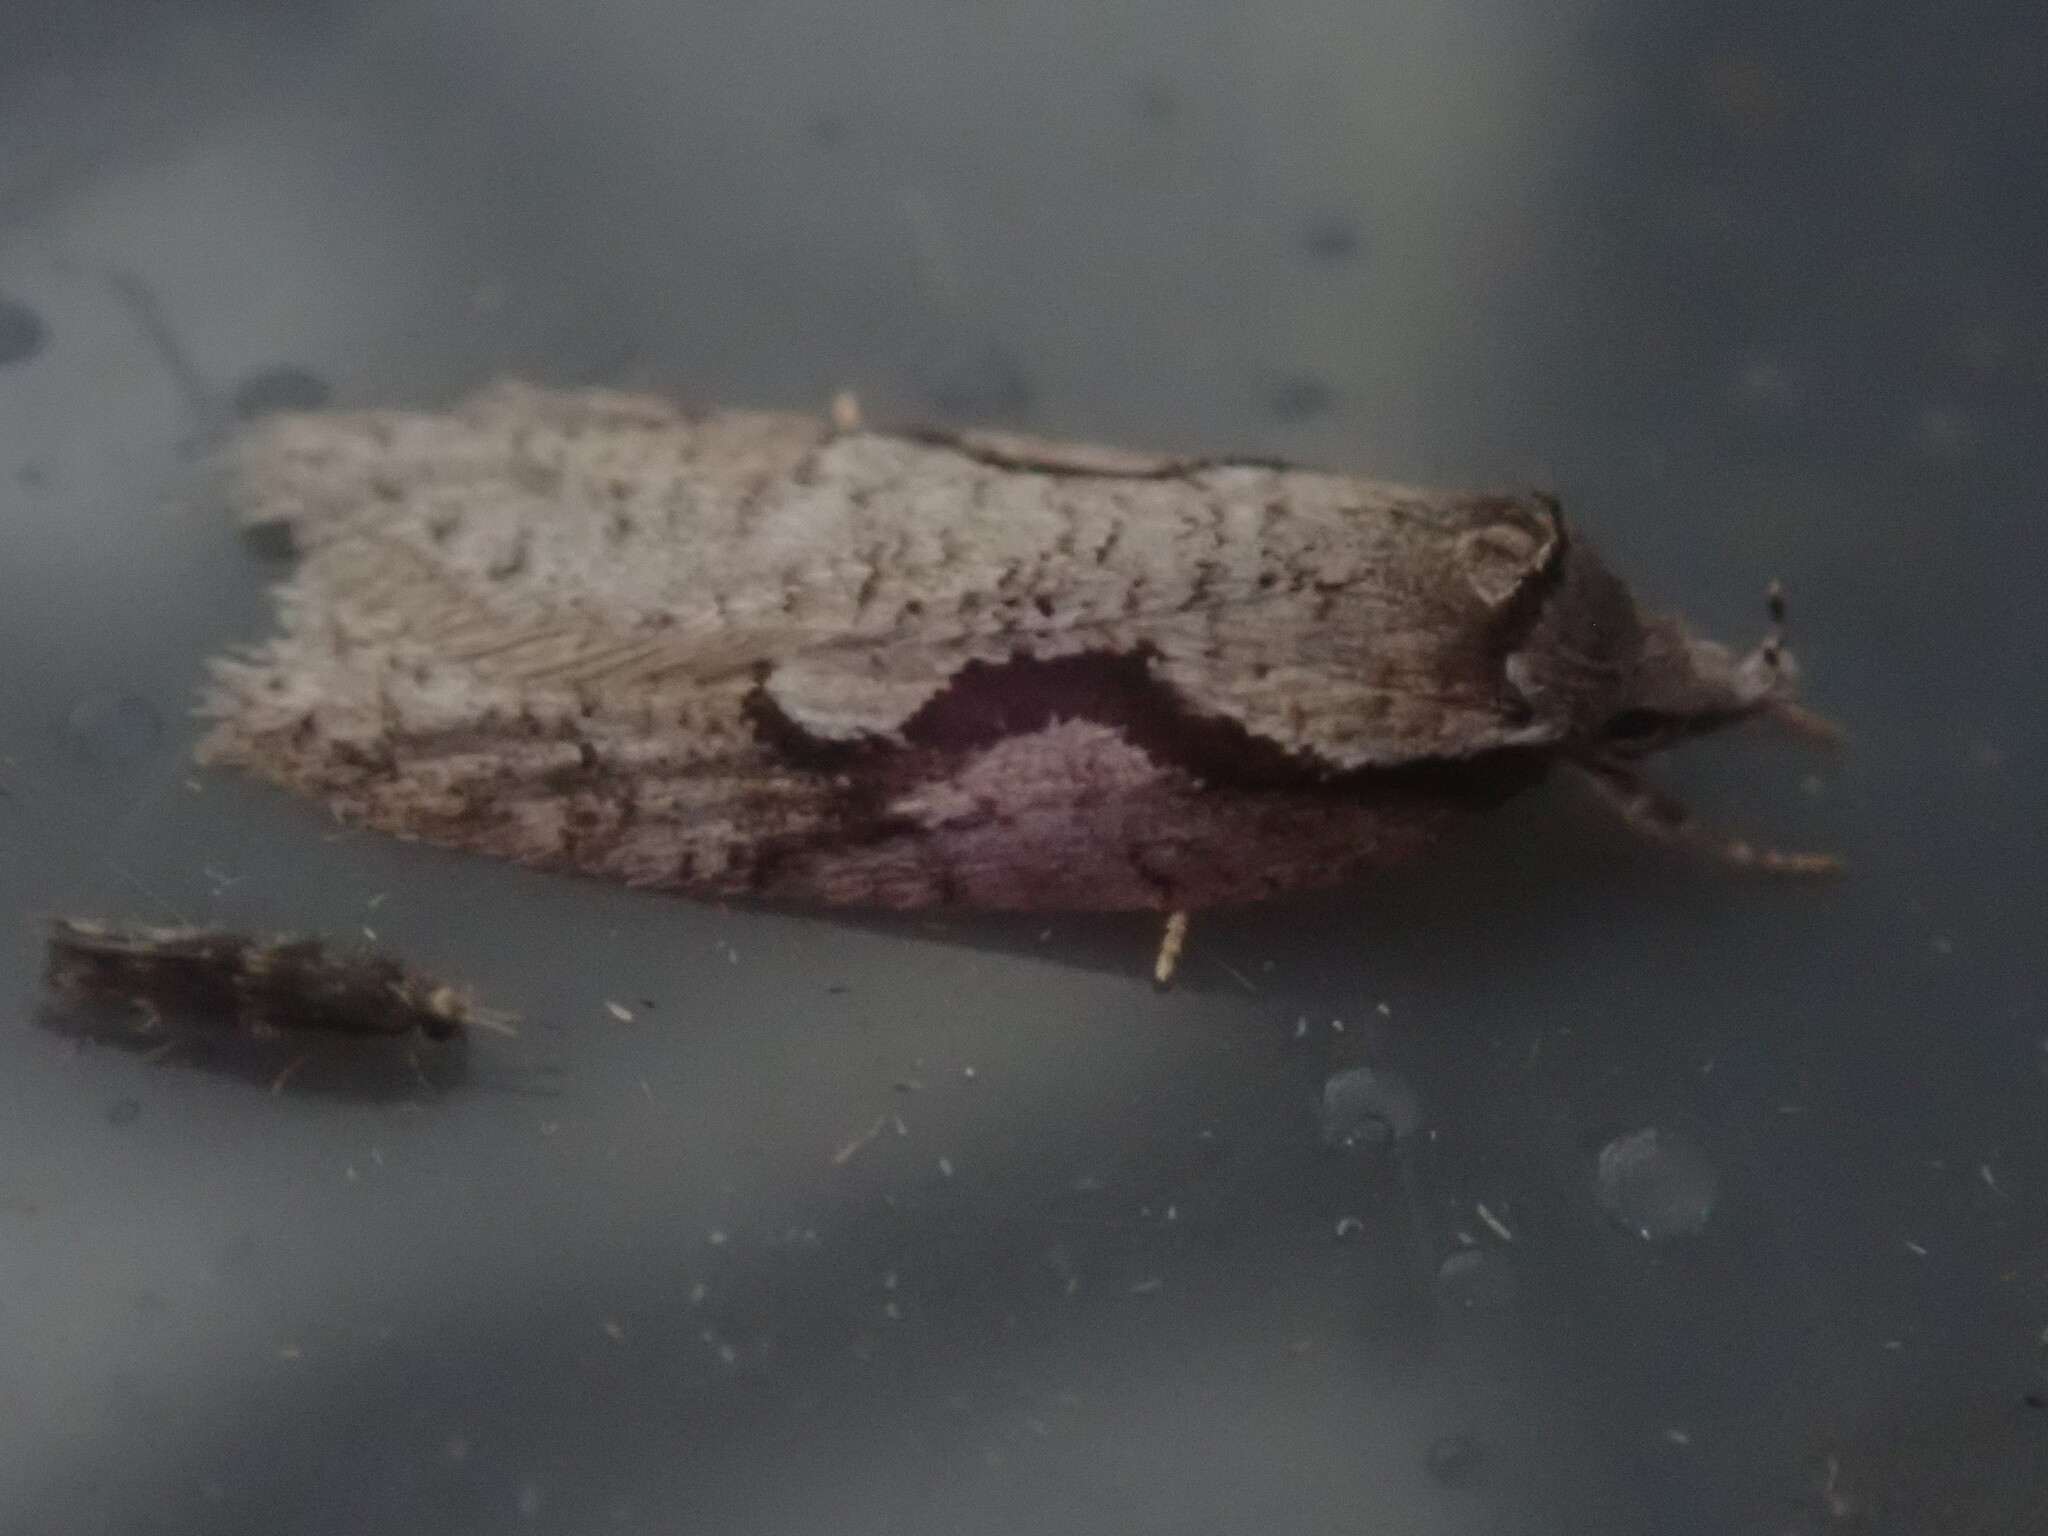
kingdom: Animalia
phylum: Arthropoda
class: Insecta
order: Lepidoptera
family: Depressariidae
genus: Semioscopis
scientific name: Semioscopis packardella
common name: Packard's concealer moth
